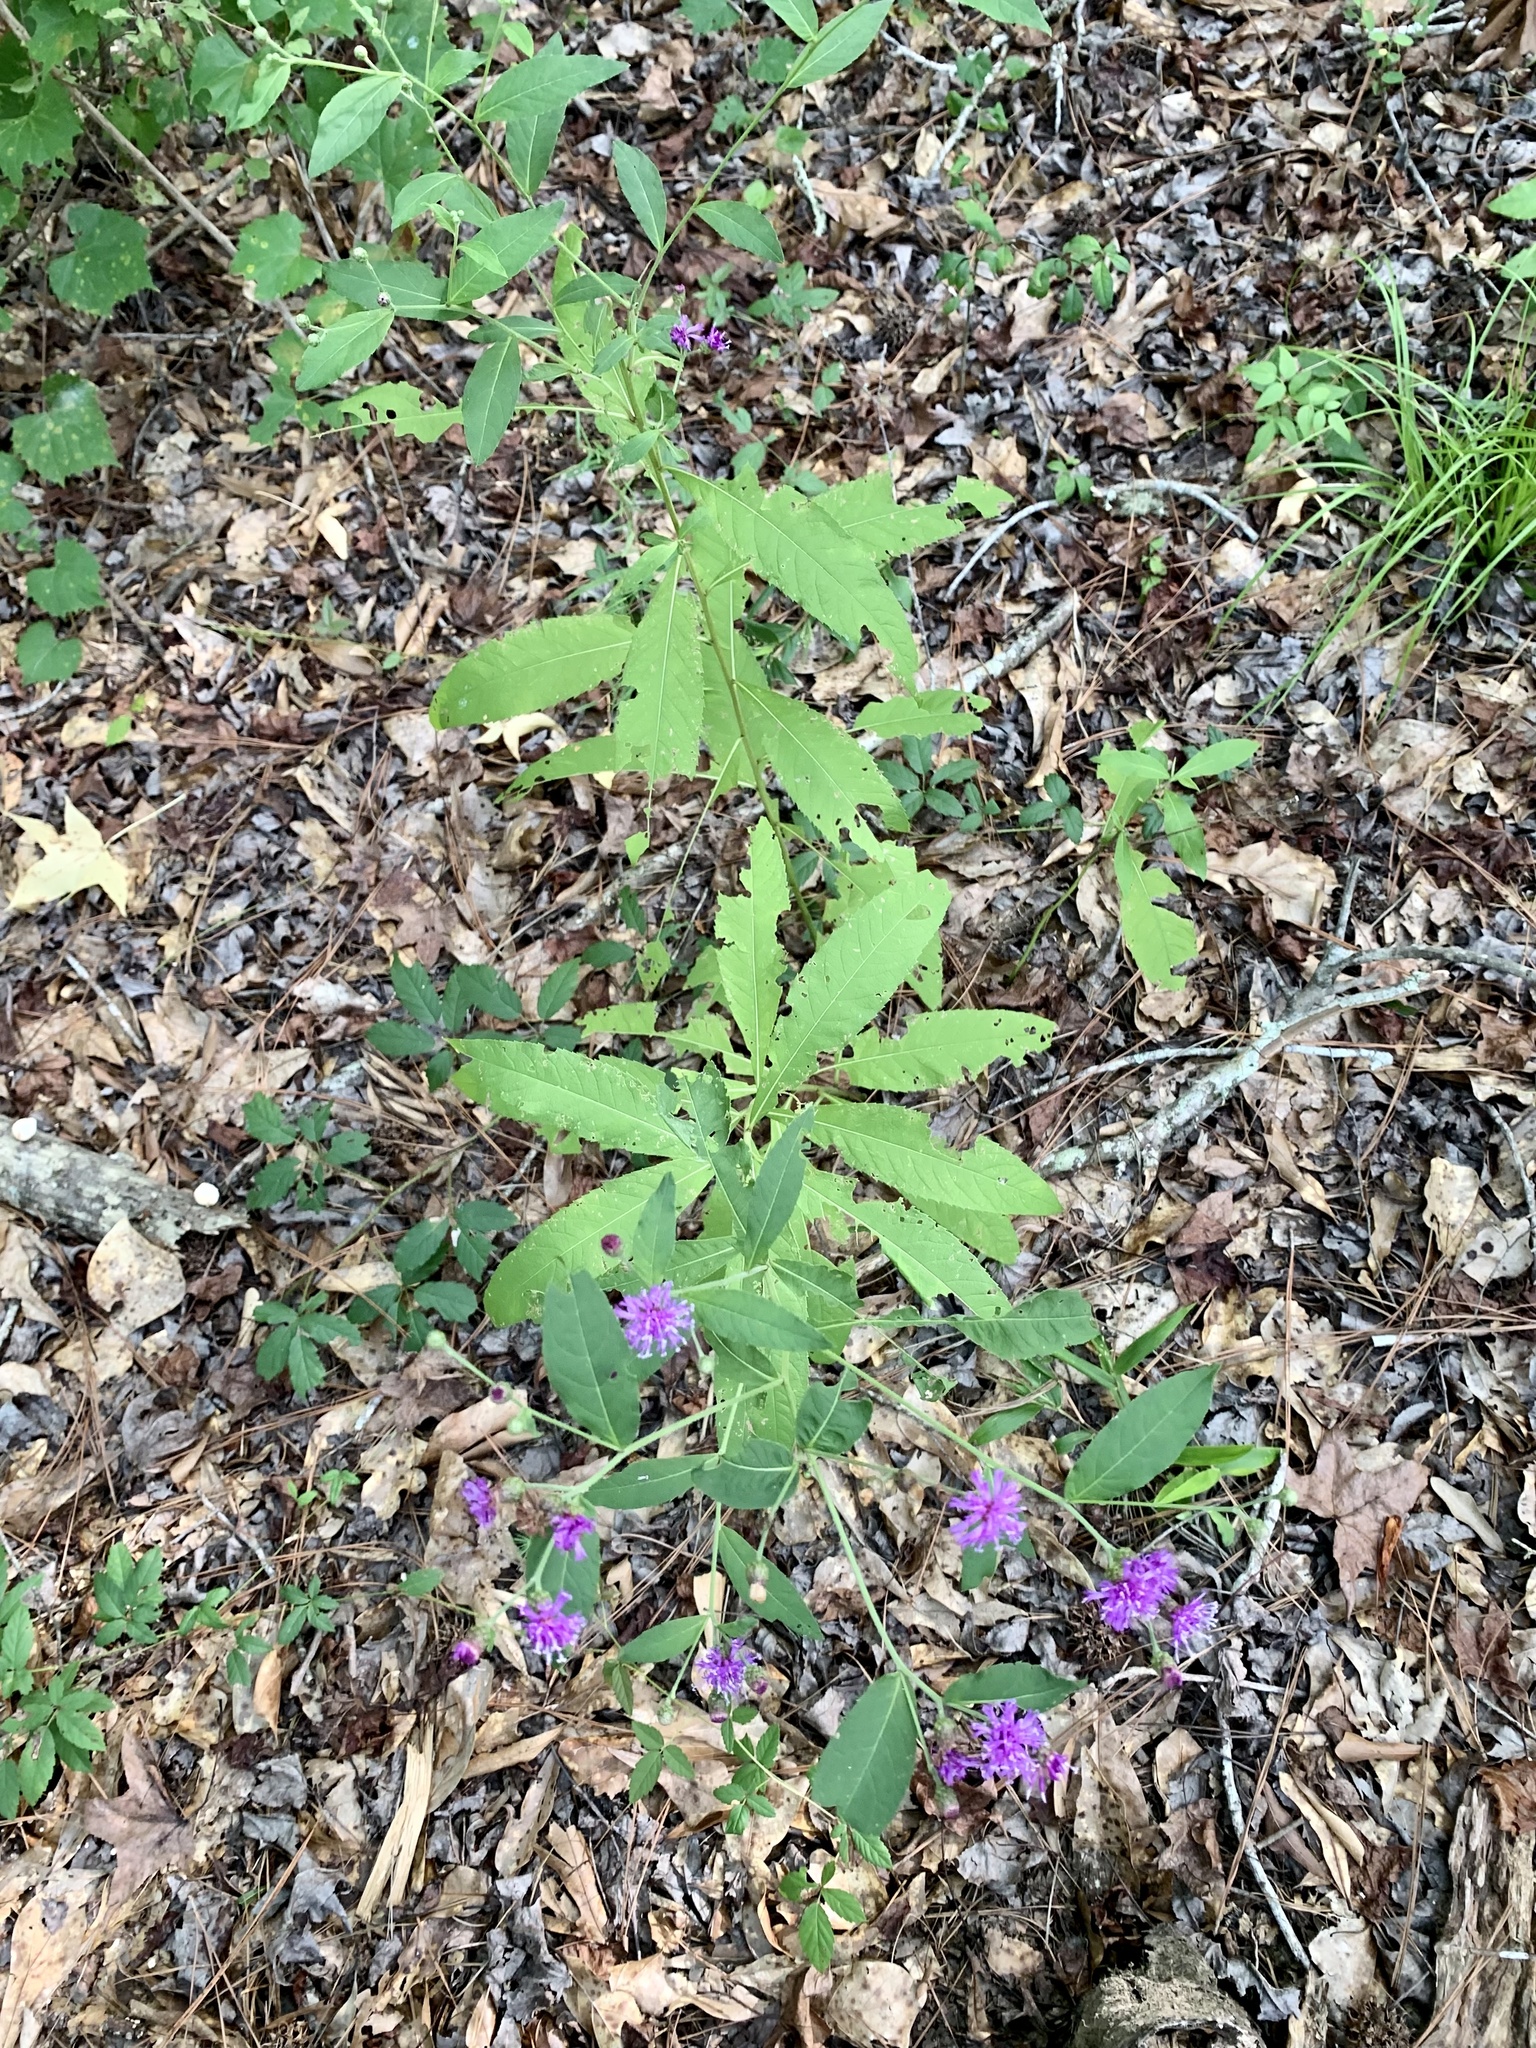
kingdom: Plantae
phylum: Tracheophyta
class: Magnoliopsida
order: Asterales
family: Asteraceae
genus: Vernonia
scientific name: Vernonia missurica
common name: Missouri ironweed
